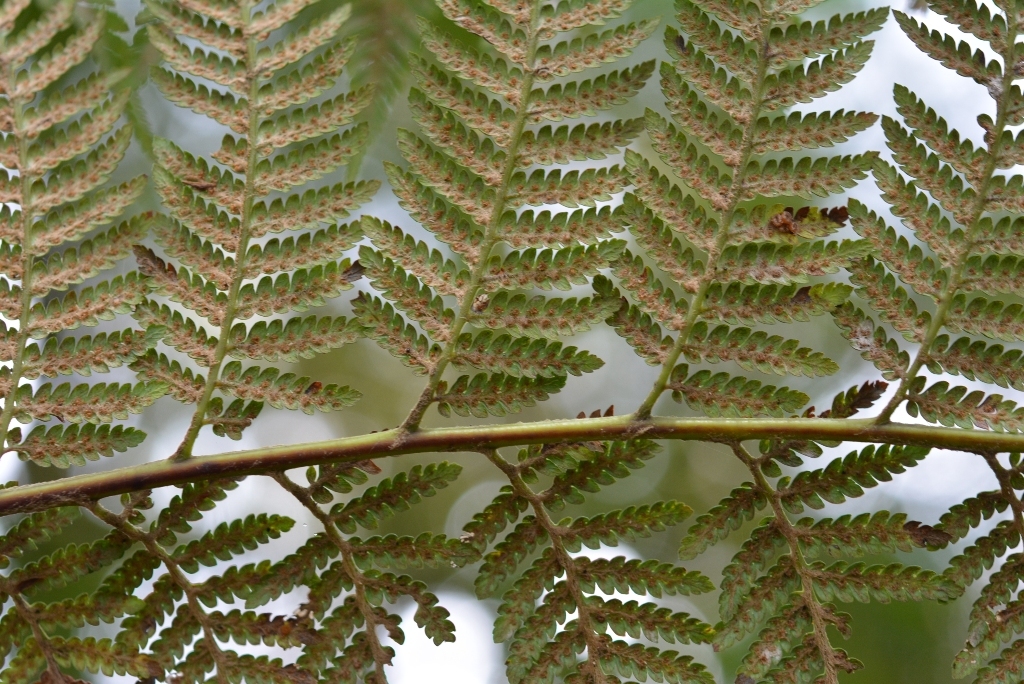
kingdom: Plantae
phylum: Tracheophyta
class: Polypodiopsida
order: Cyatheales
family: Dicksoniaceae
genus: Lophosoria
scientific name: Lophosoria quadripinnata
